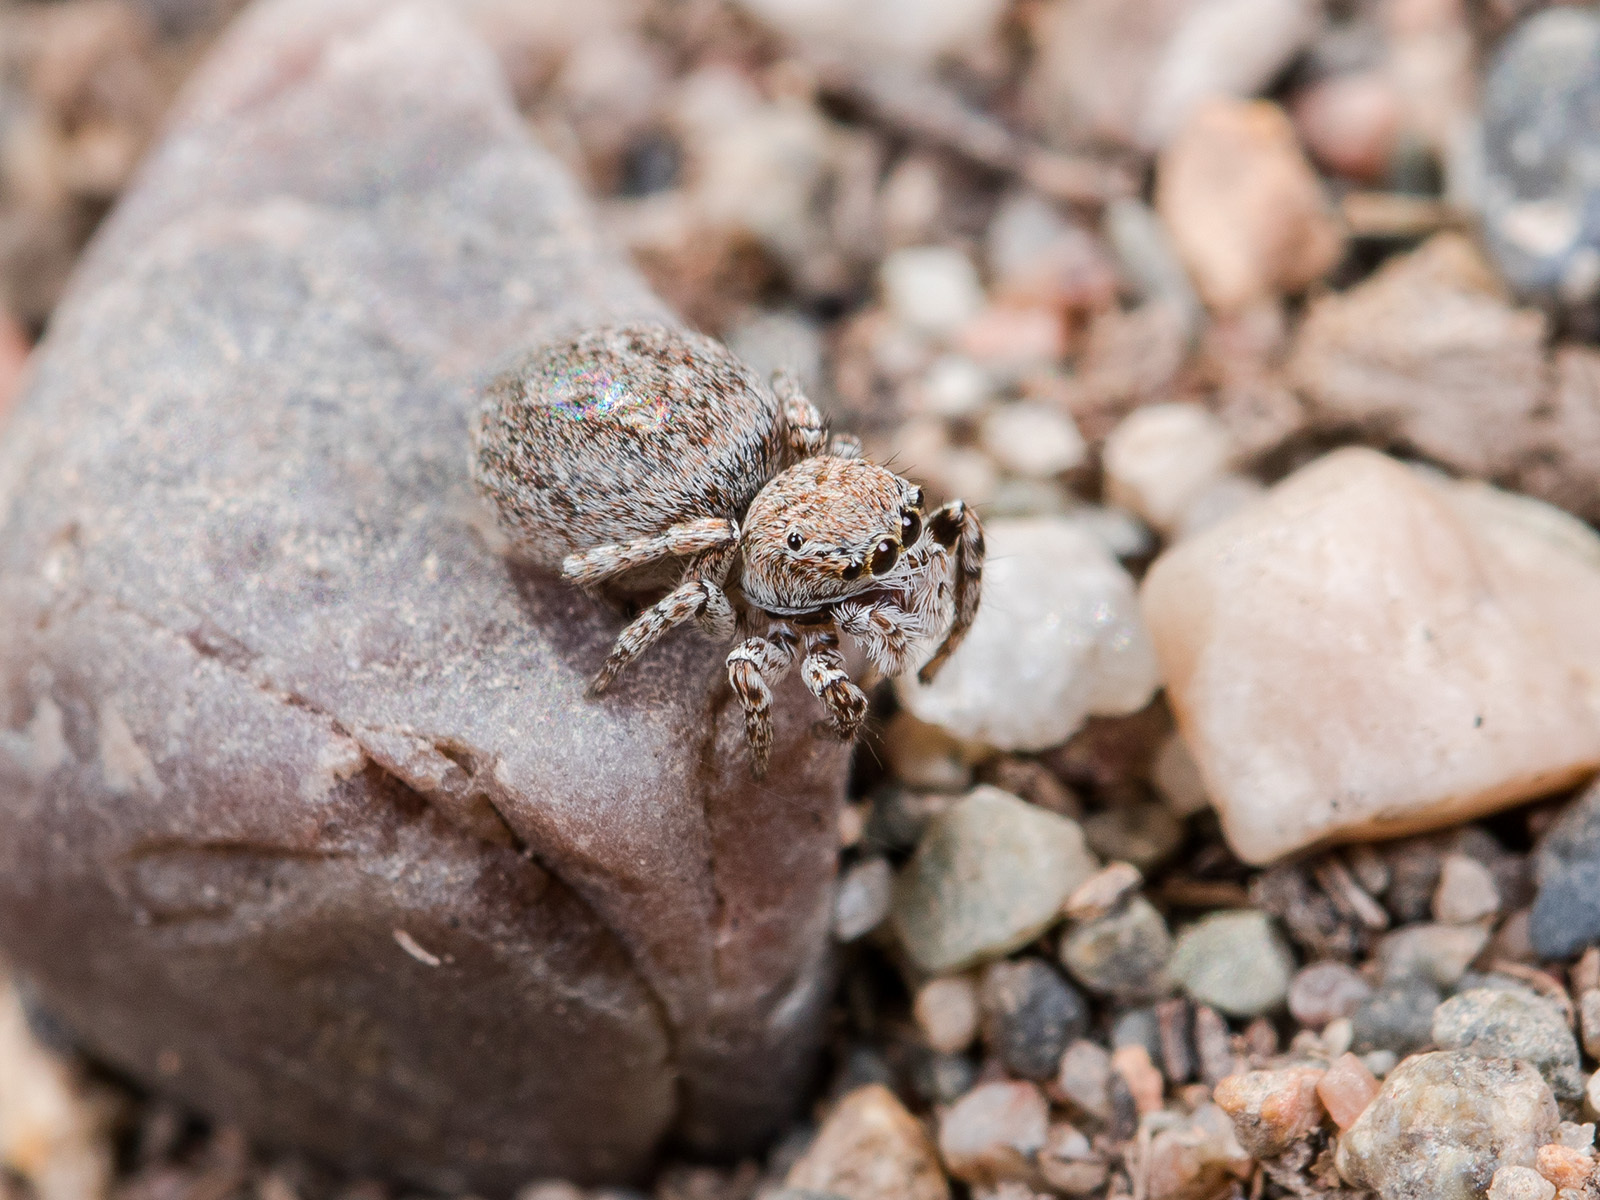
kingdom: Animalia
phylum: Arthropoda
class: Arachnida
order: Araneae
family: Salticidae
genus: Attulus
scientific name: Attulus mirandus
